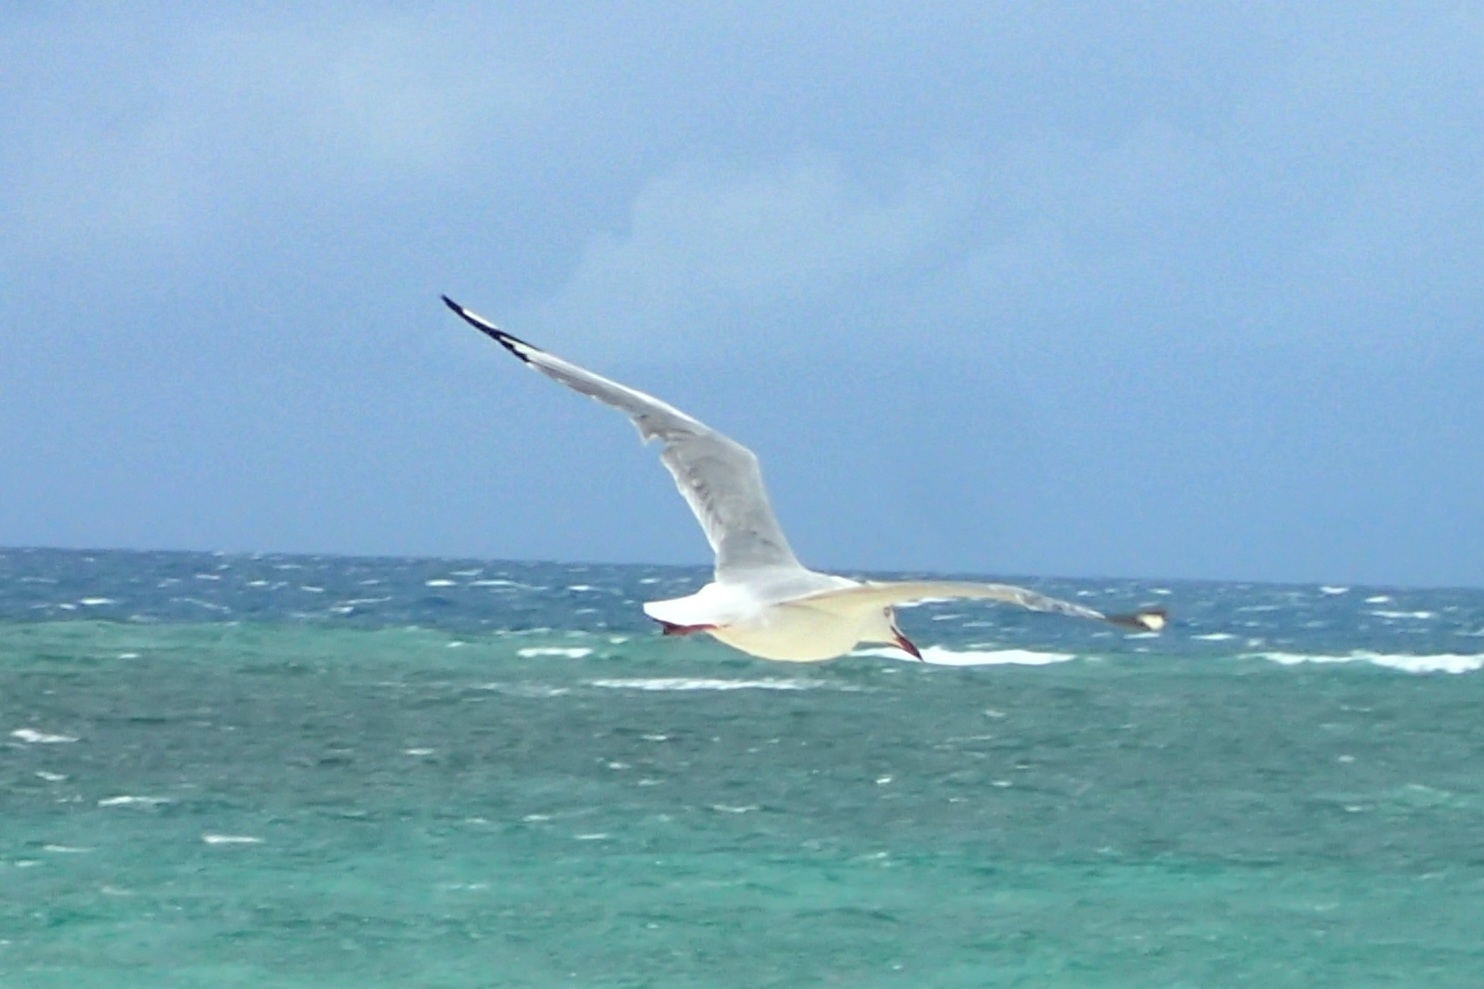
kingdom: Animalia
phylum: Chordata
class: Aves
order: Charadriiformes
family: Laridae
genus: Chroicocephalus
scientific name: Chroicocephalus novaehollandiae
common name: Silver gull
